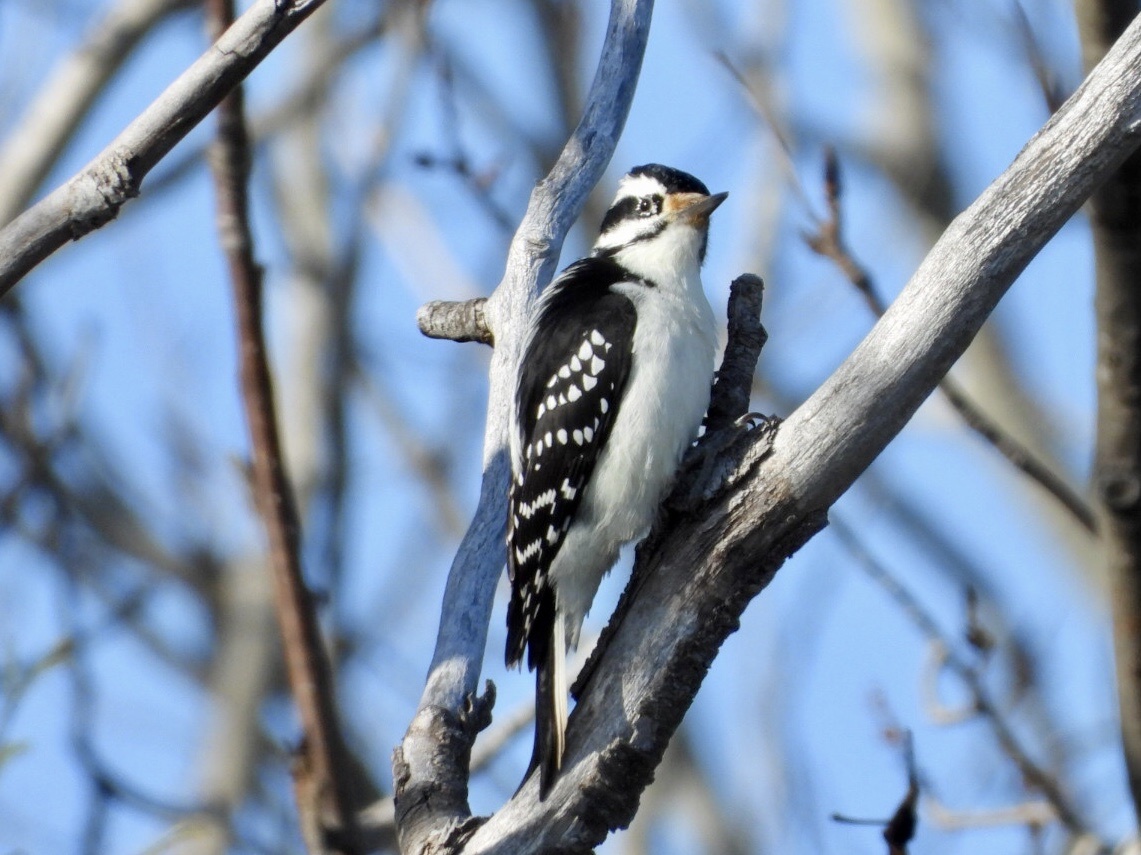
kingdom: Animalia
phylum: Chordata
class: Aves
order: Piciformes
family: Picidae
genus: Leuconotopicus
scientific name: Leuconotopicus villosus
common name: Hairy woodpecker
